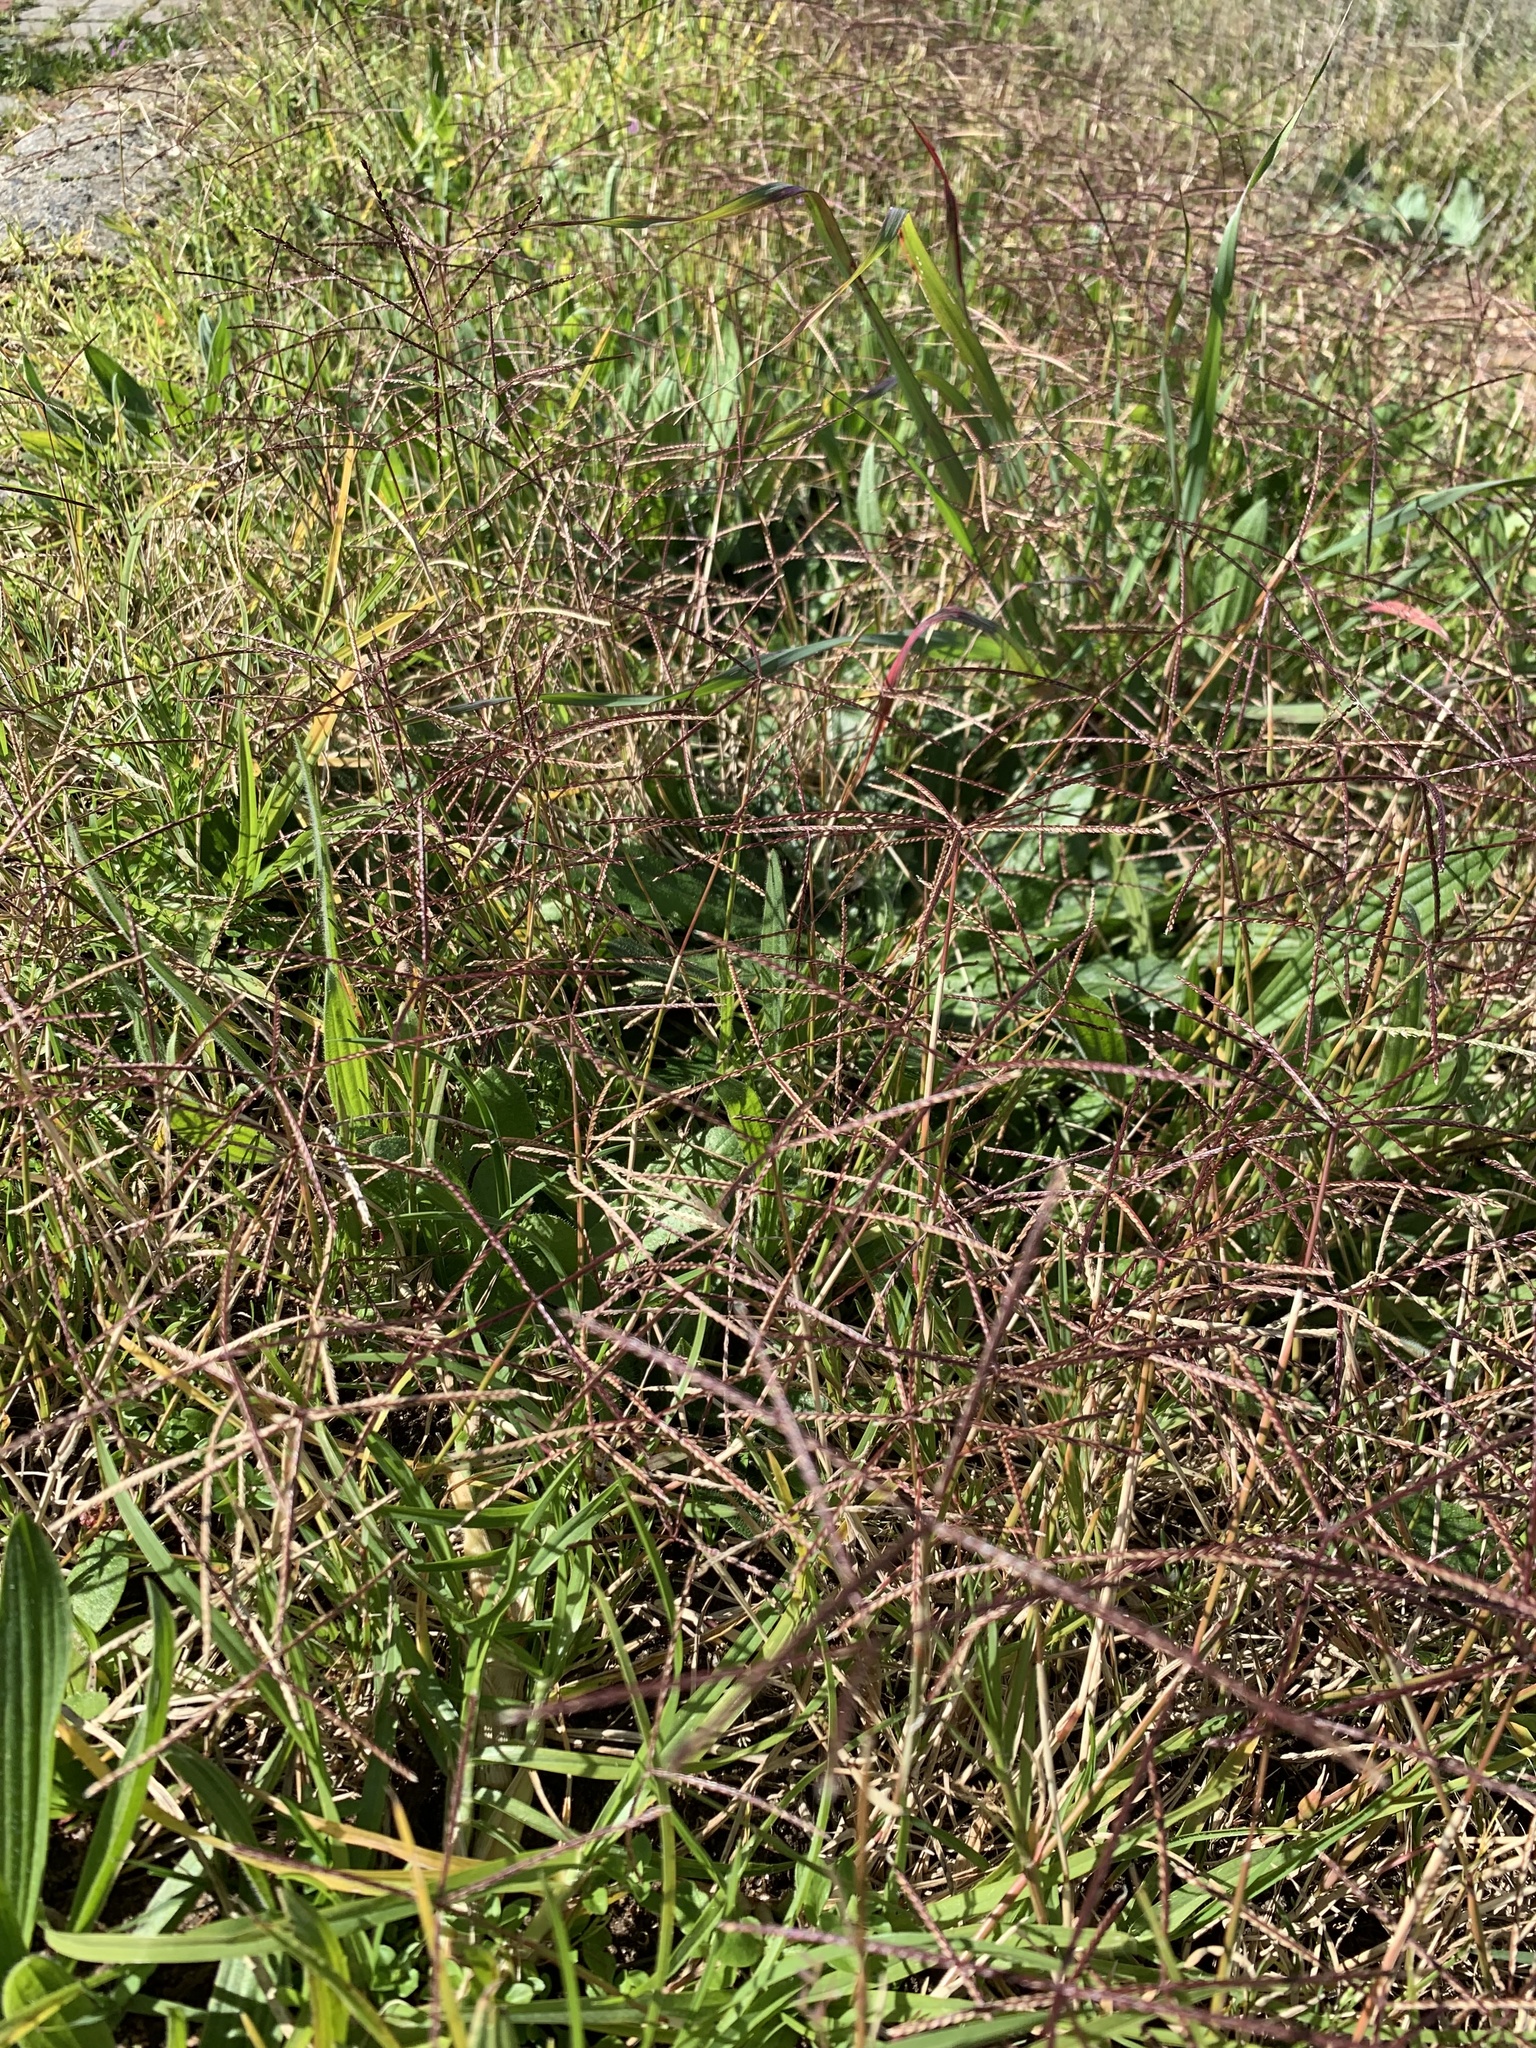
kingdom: Plantae
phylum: Tracheophyta
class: Liliopsida
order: Poales
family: Poaceae
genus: Cynodon
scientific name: Cynodon dactylon
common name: Bermuda grass
